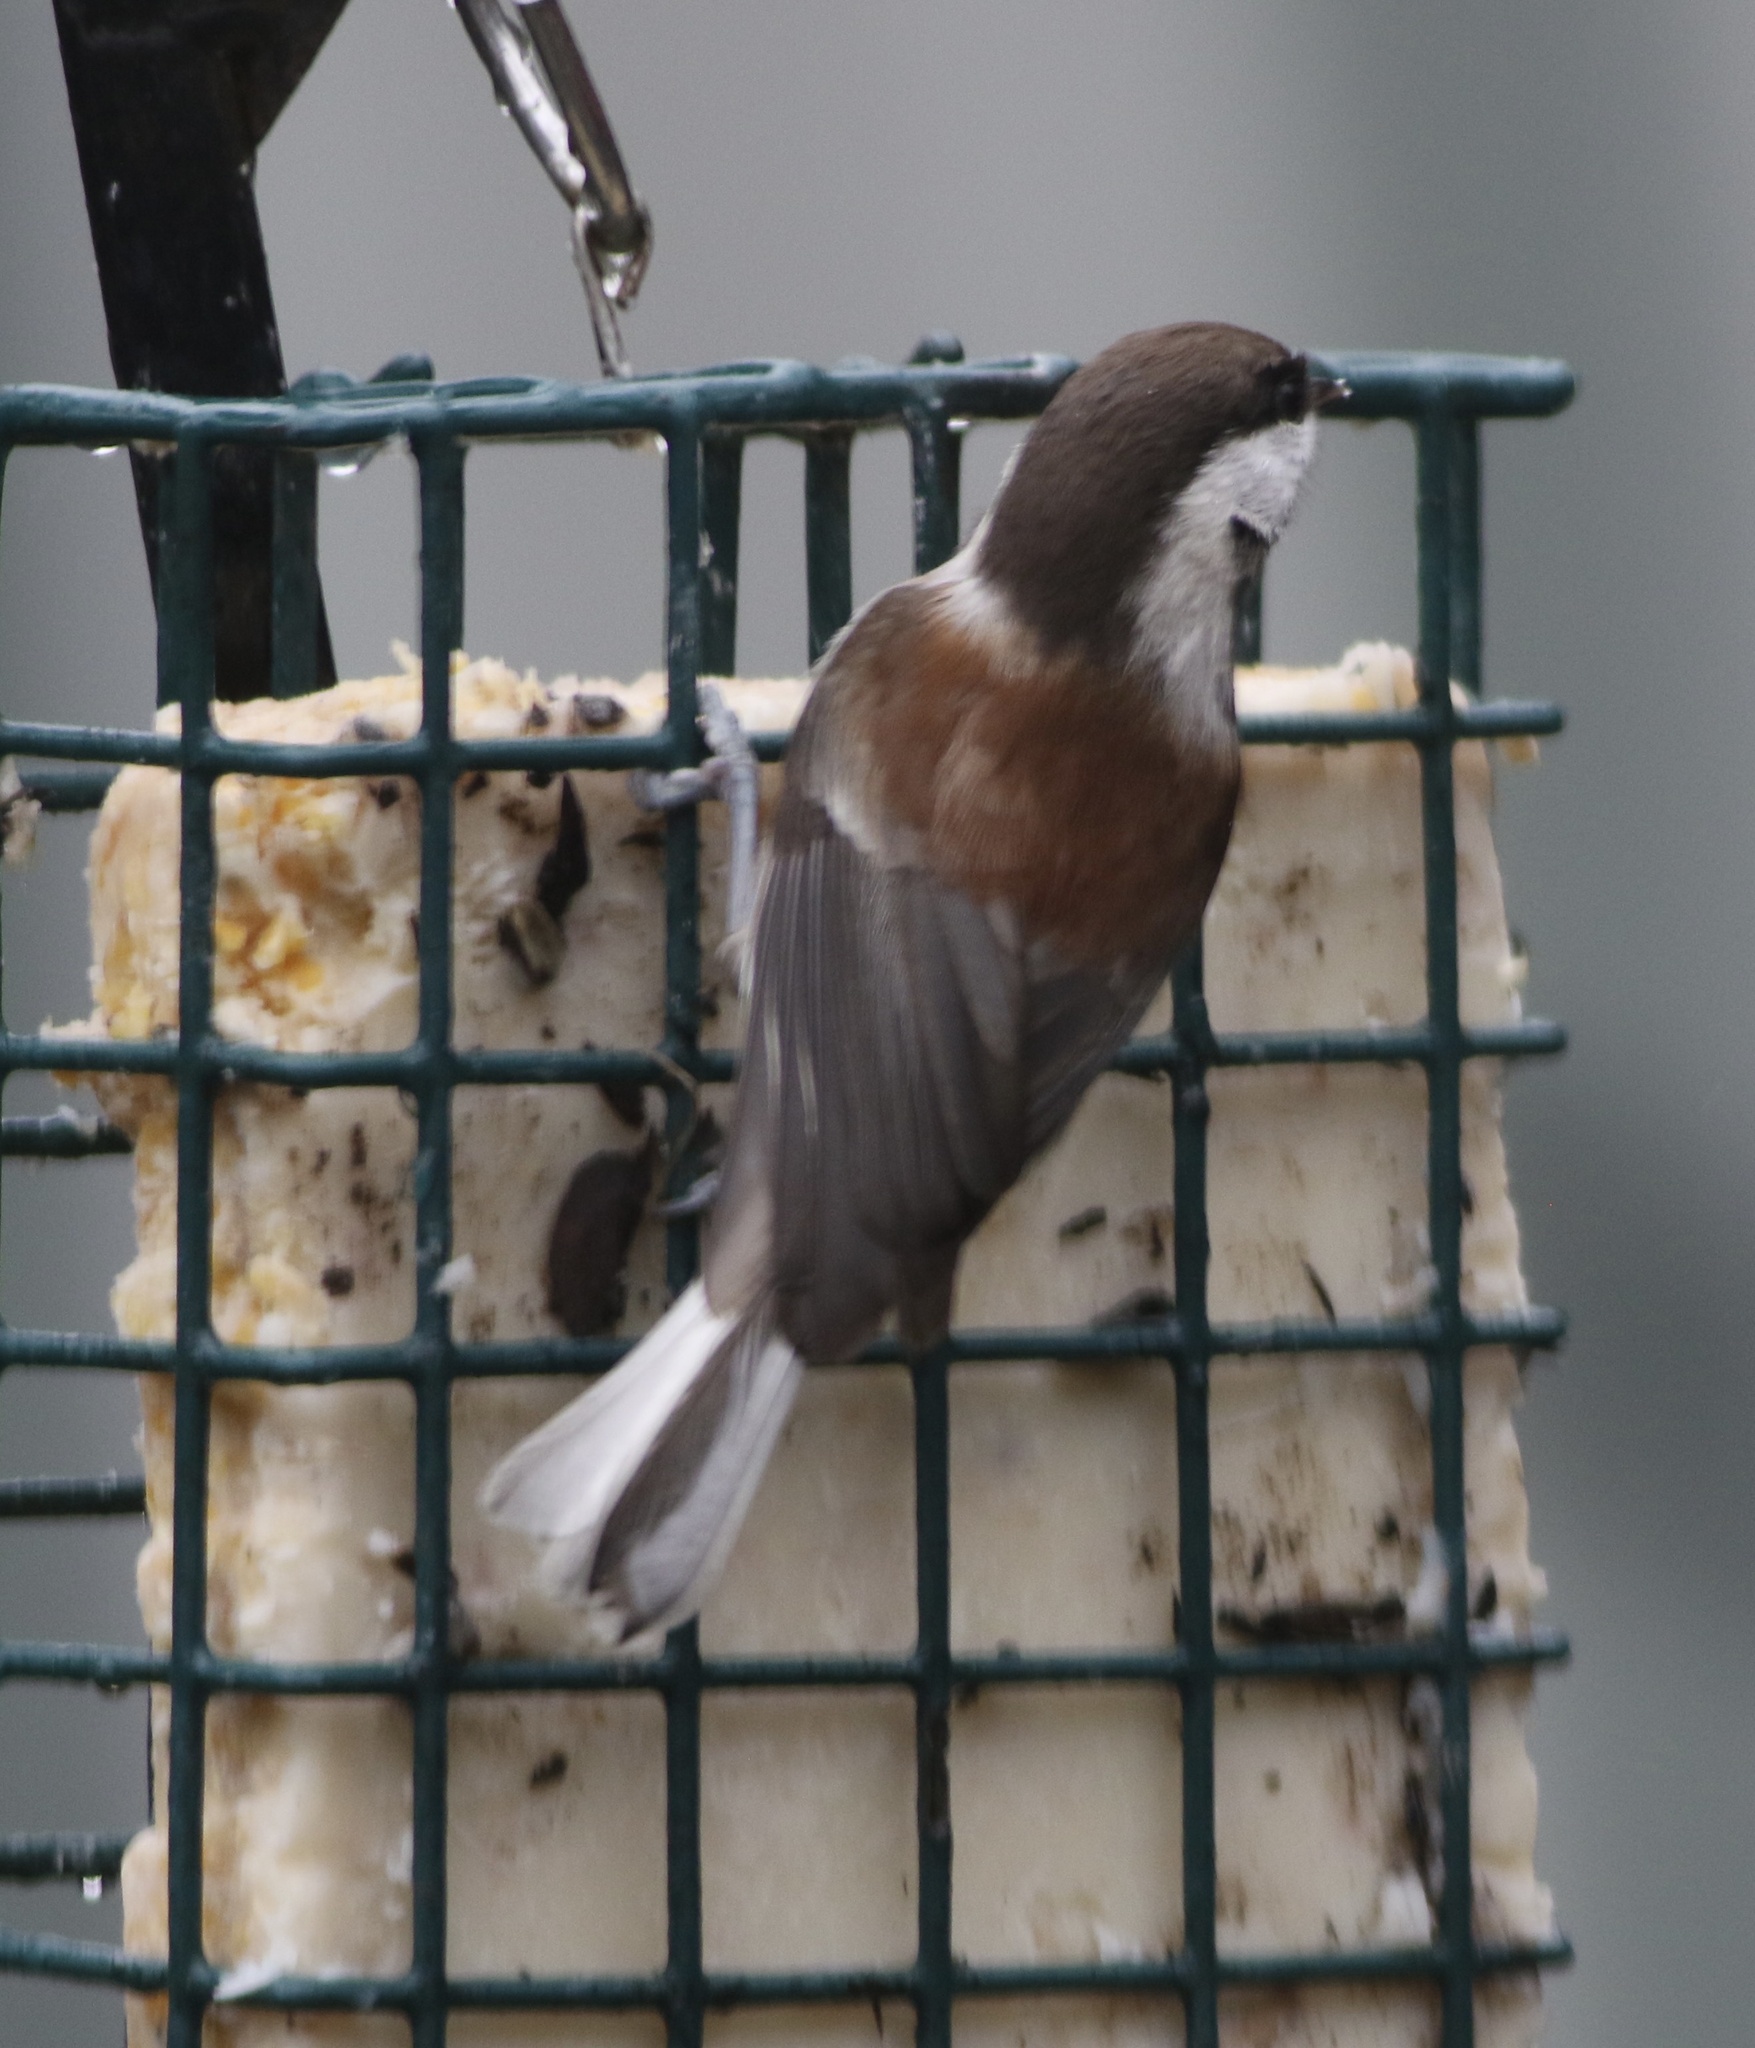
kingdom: Animalia
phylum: Chordata
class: Aves
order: Passeriformes
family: Paridae
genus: Poecile
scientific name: Poecile rufescens
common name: Chestnut-backed chickadee
